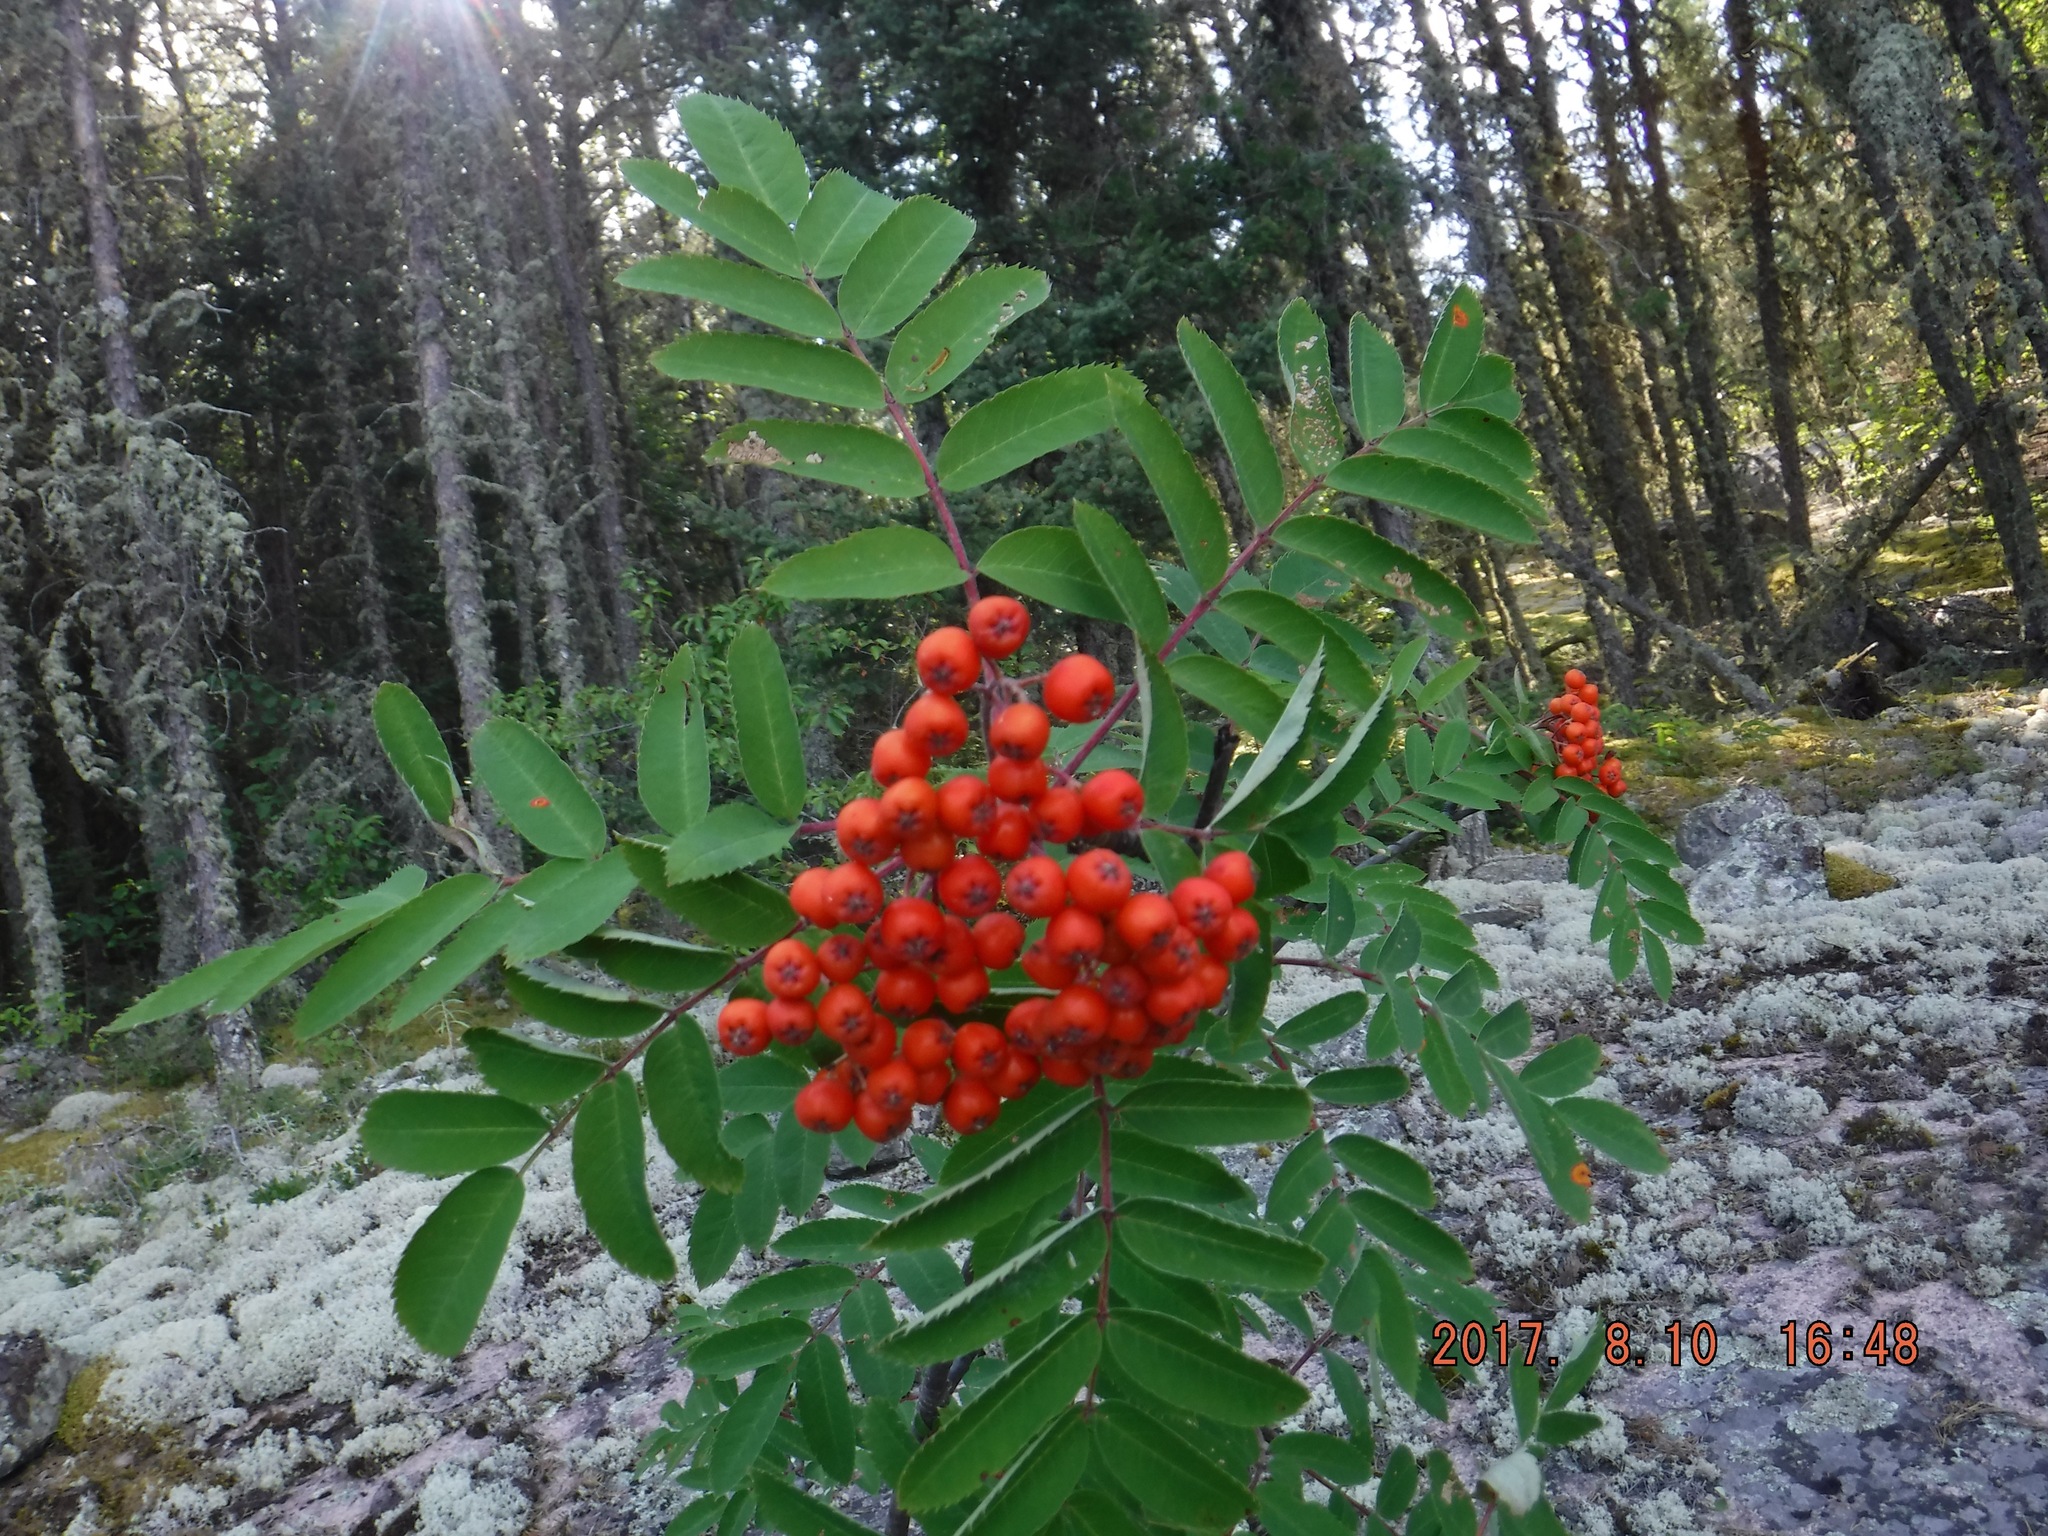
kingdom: Plantae
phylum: Tracheophyta
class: Magnoliopsida
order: Rosales
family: Rosaceae
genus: Sorbus
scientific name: Sorbus decora
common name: Northern mountain-ash
